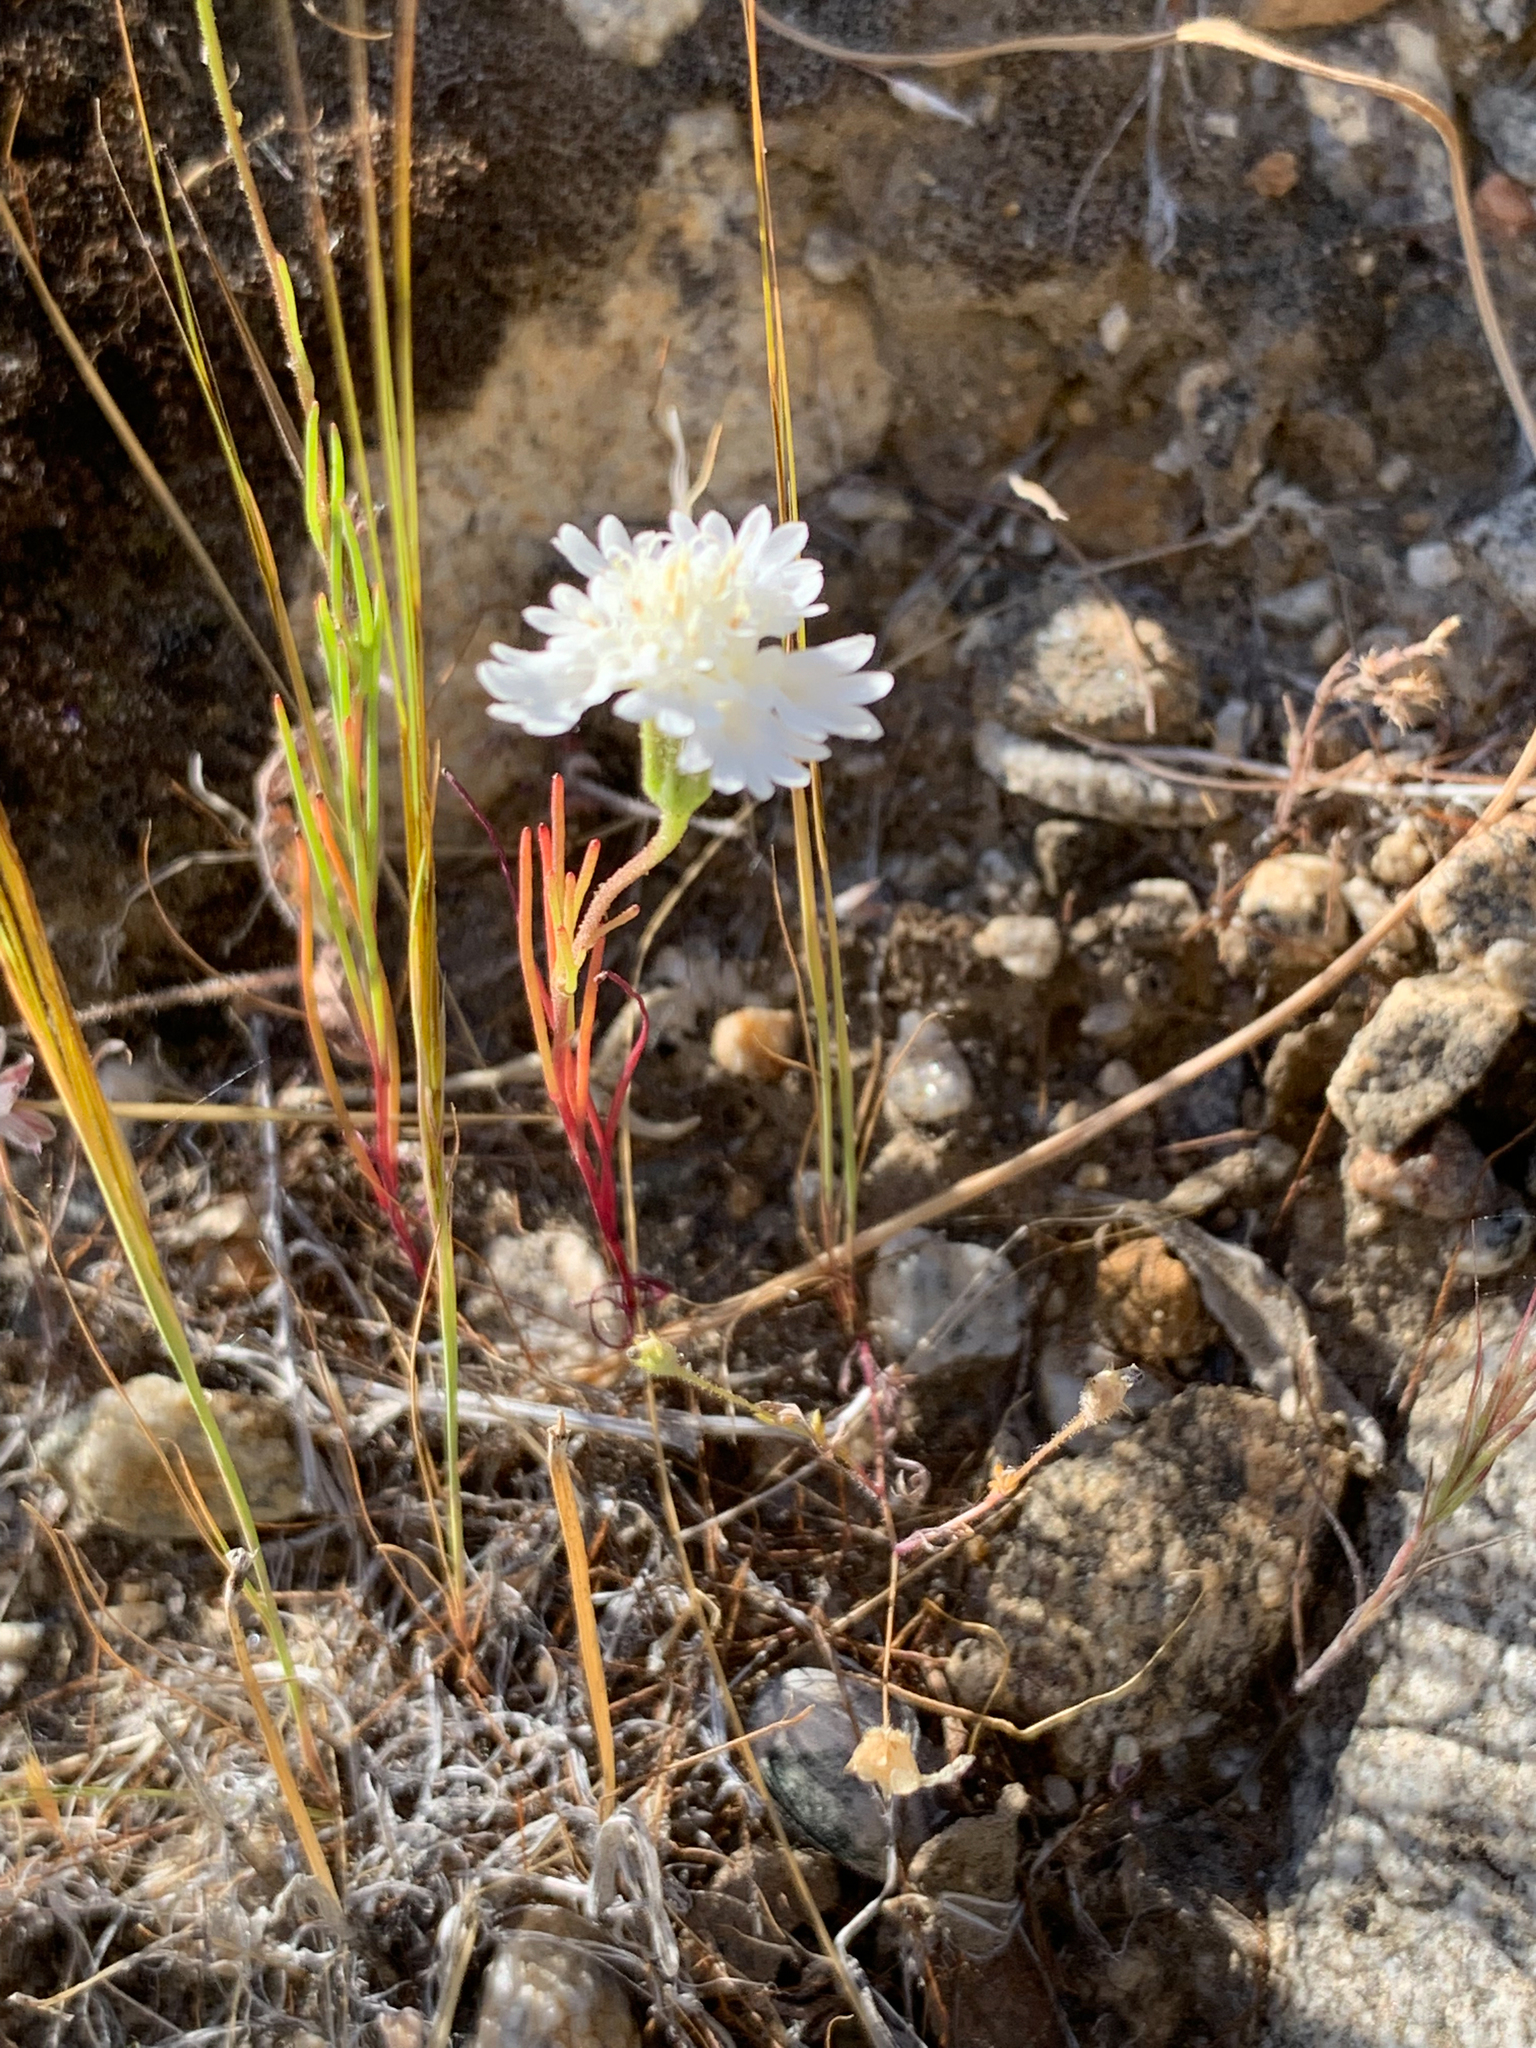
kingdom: Plantae
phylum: Tracheophyta
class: Magnoliopsida
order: Asterales
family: Asteraceae
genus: Chaenactis
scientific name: Chaenactis fremontii
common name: Fremont pincushion
